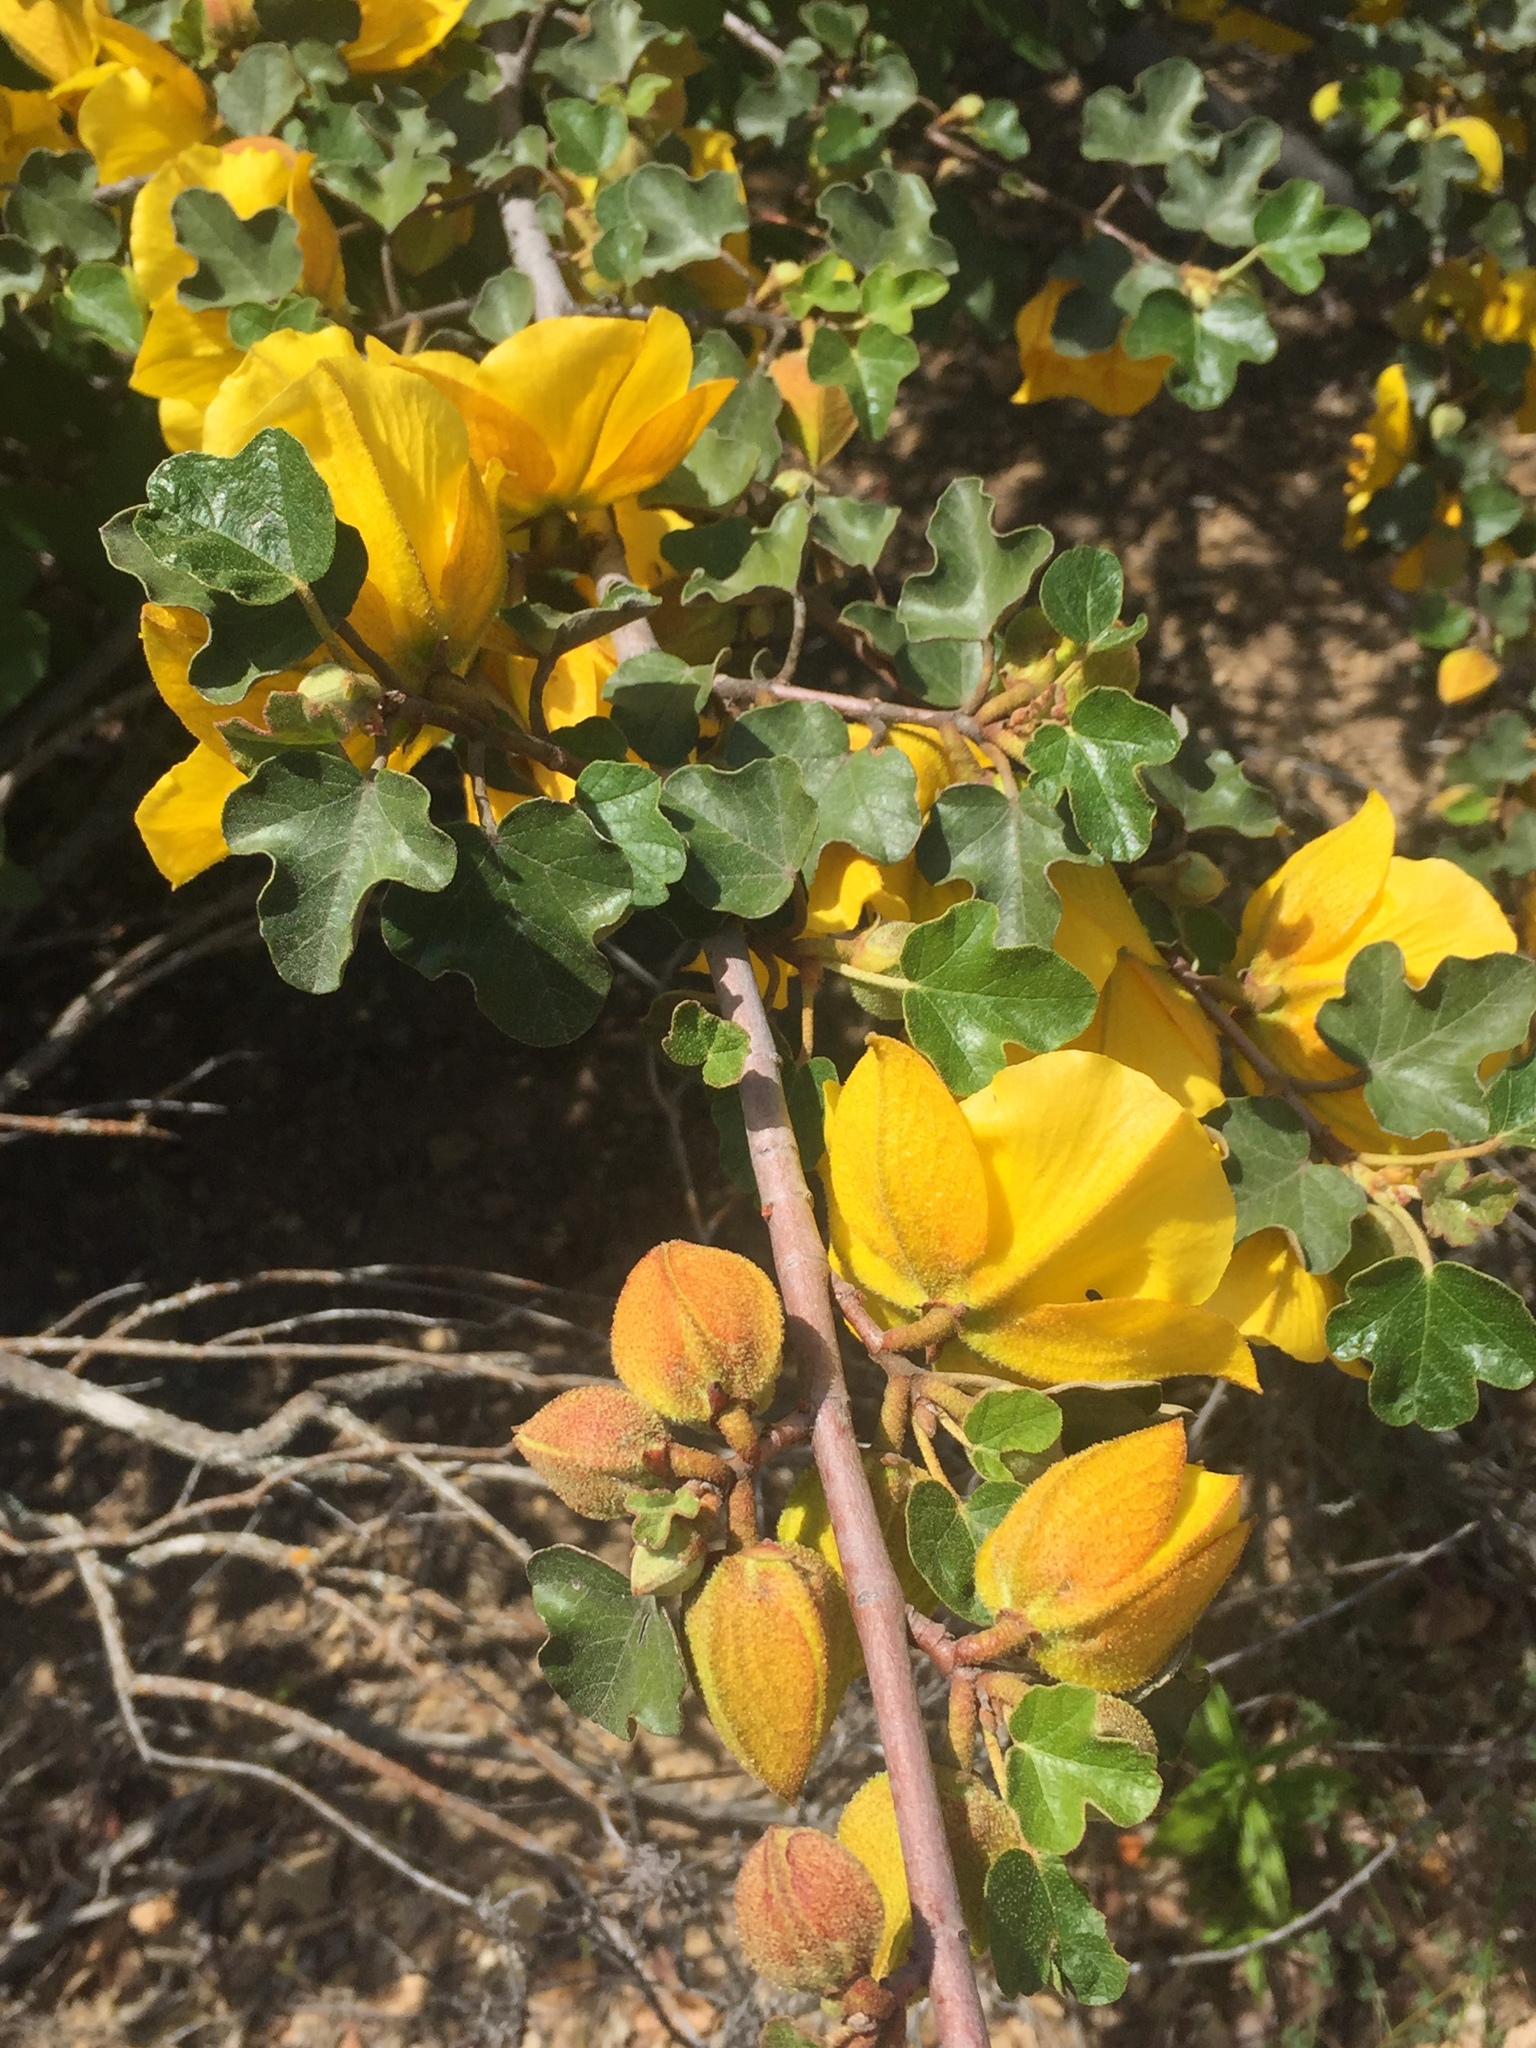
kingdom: Plantae
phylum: Tracheophyta
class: Magnoliopsida
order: Malvales
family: Malvaceae
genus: Fremontodendron
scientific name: Fremontodendron californicum
